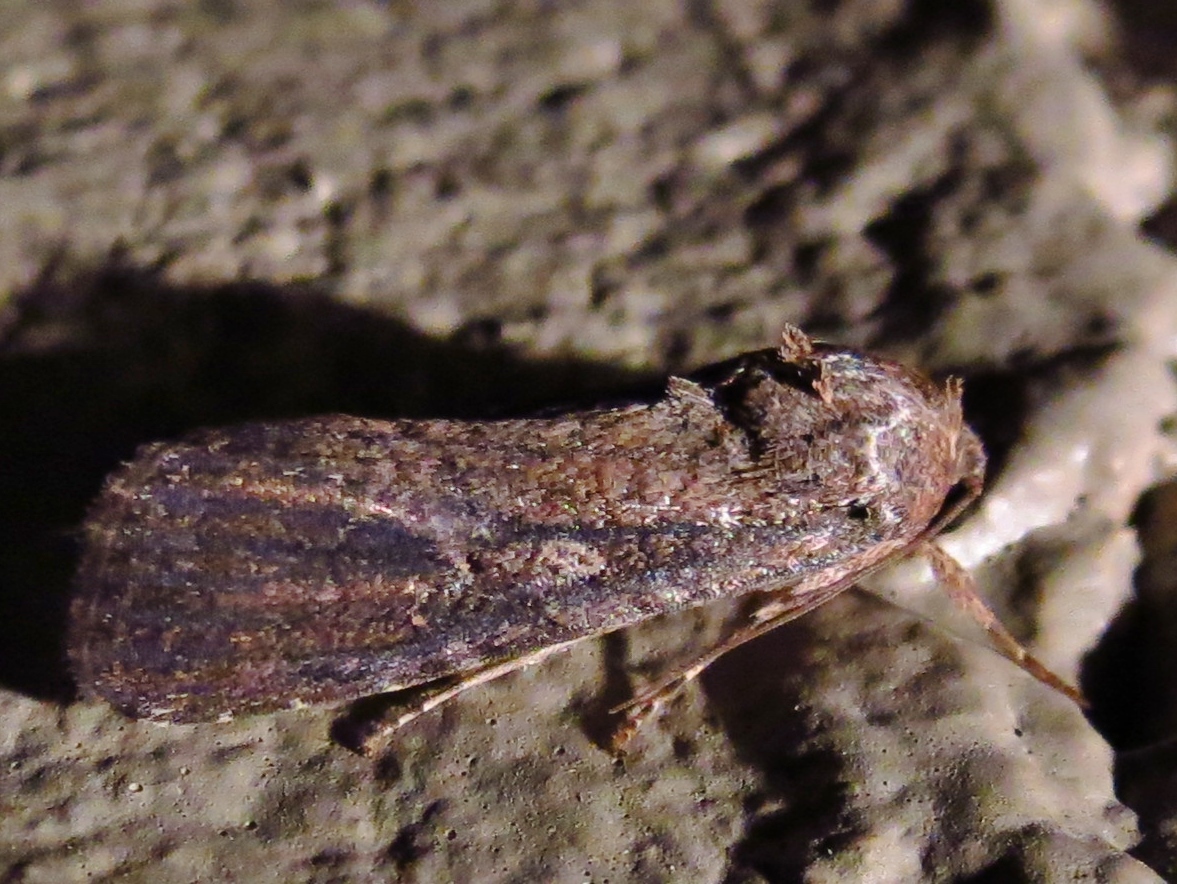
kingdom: Animalia
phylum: Arthropoda
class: Insecta
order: Lepidoptera
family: Noctuidae
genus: Spodoptera
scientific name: Spodoptera frugiperda
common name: Fall armyworm
